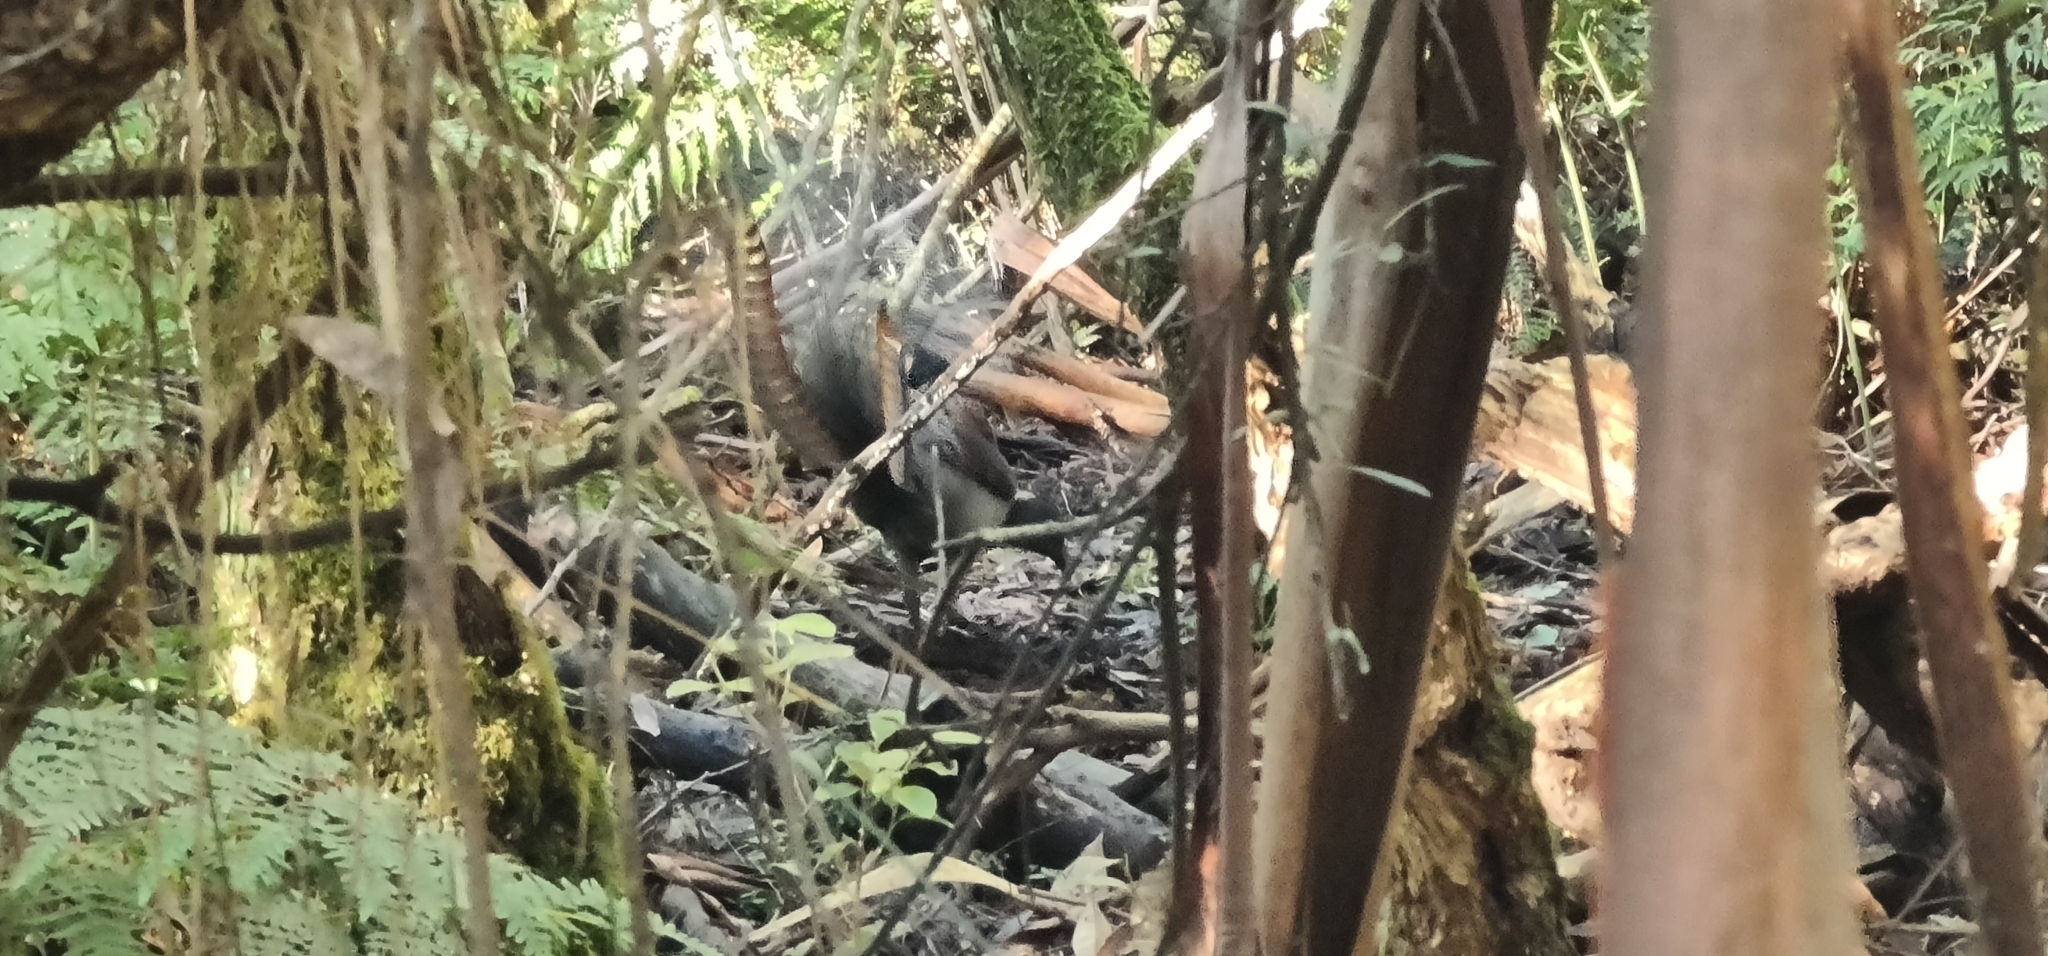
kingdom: Animalia
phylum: Chordata
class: Aves
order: Passeriformes
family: Menuridae
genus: Menura
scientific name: Menura novaehollandiae
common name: Superb lyrebird
